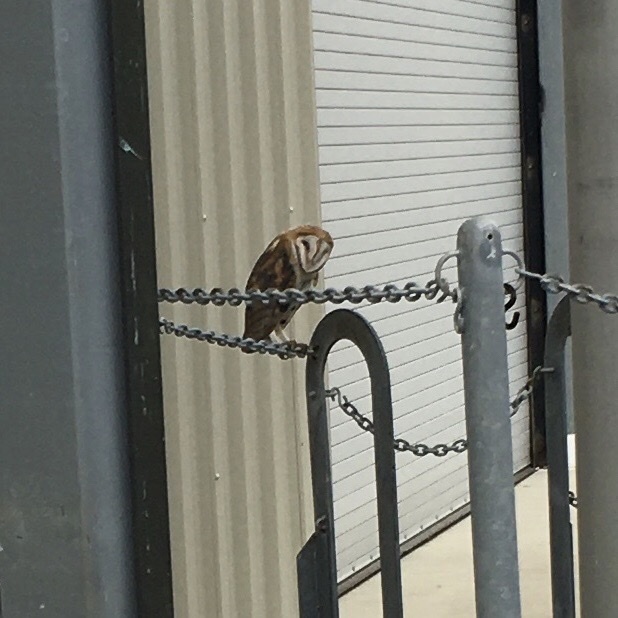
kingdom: Animalia
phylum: Chordata
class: Aves
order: Strigiformes
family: Tytonidae
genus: Tyto
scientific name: Tyto alba
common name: Barn owl
